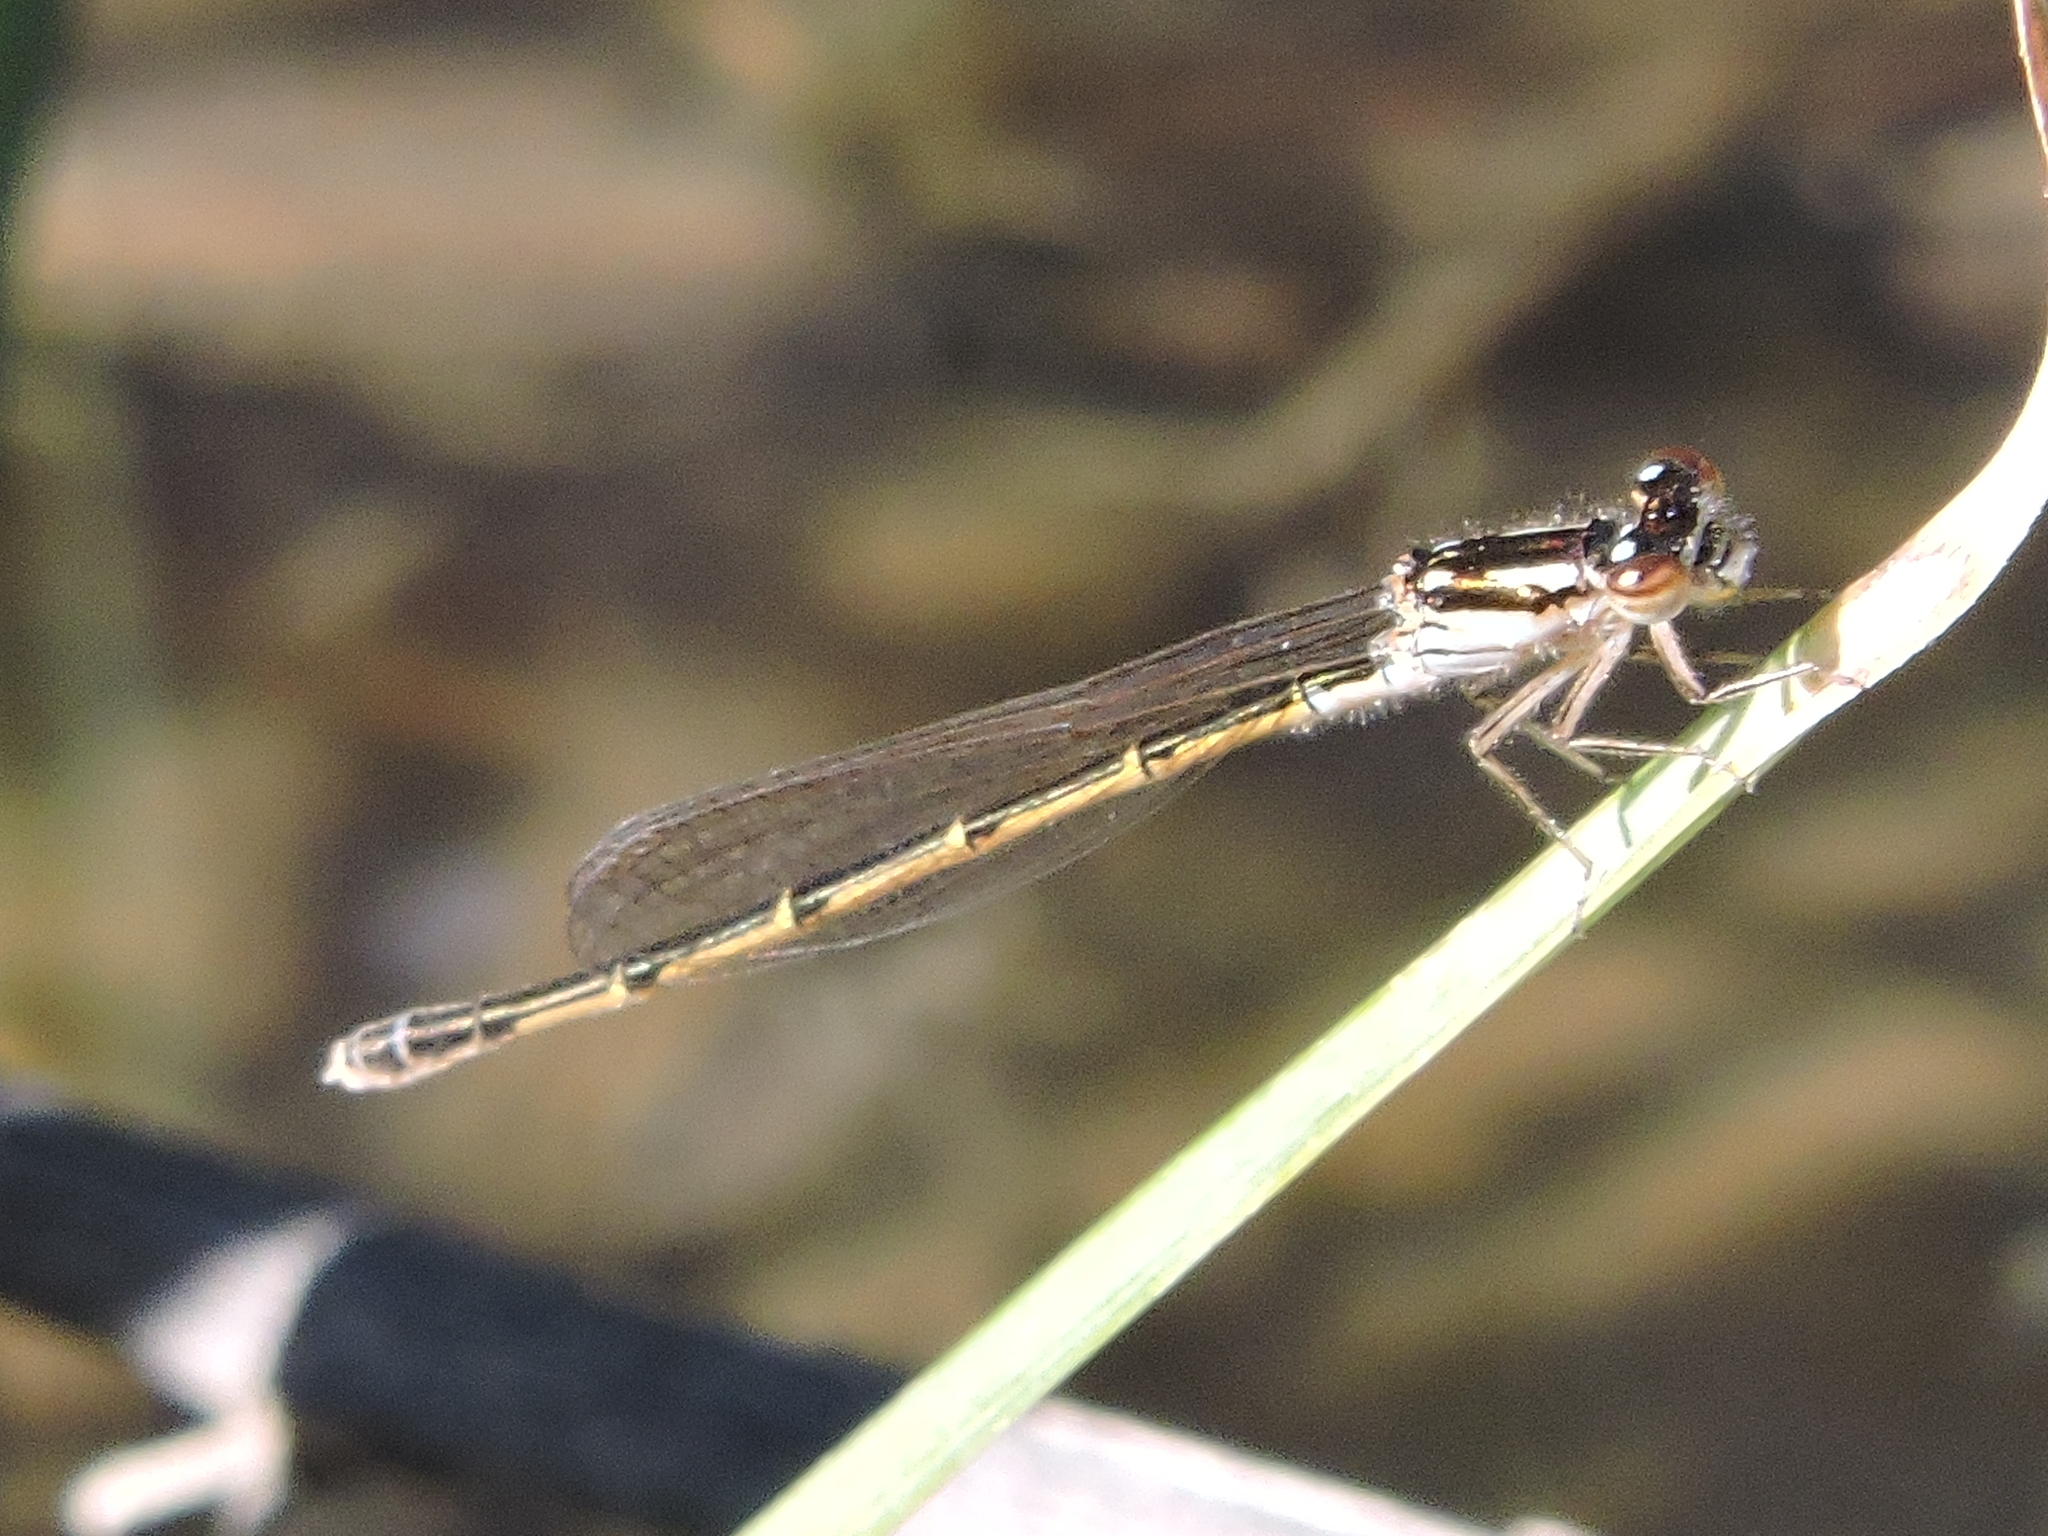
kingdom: Animalia
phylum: Arthropoda
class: Insecta
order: Odonata
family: Coenagrionidae
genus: Ischnura
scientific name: Ischnura posita
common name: Fragile forktail
